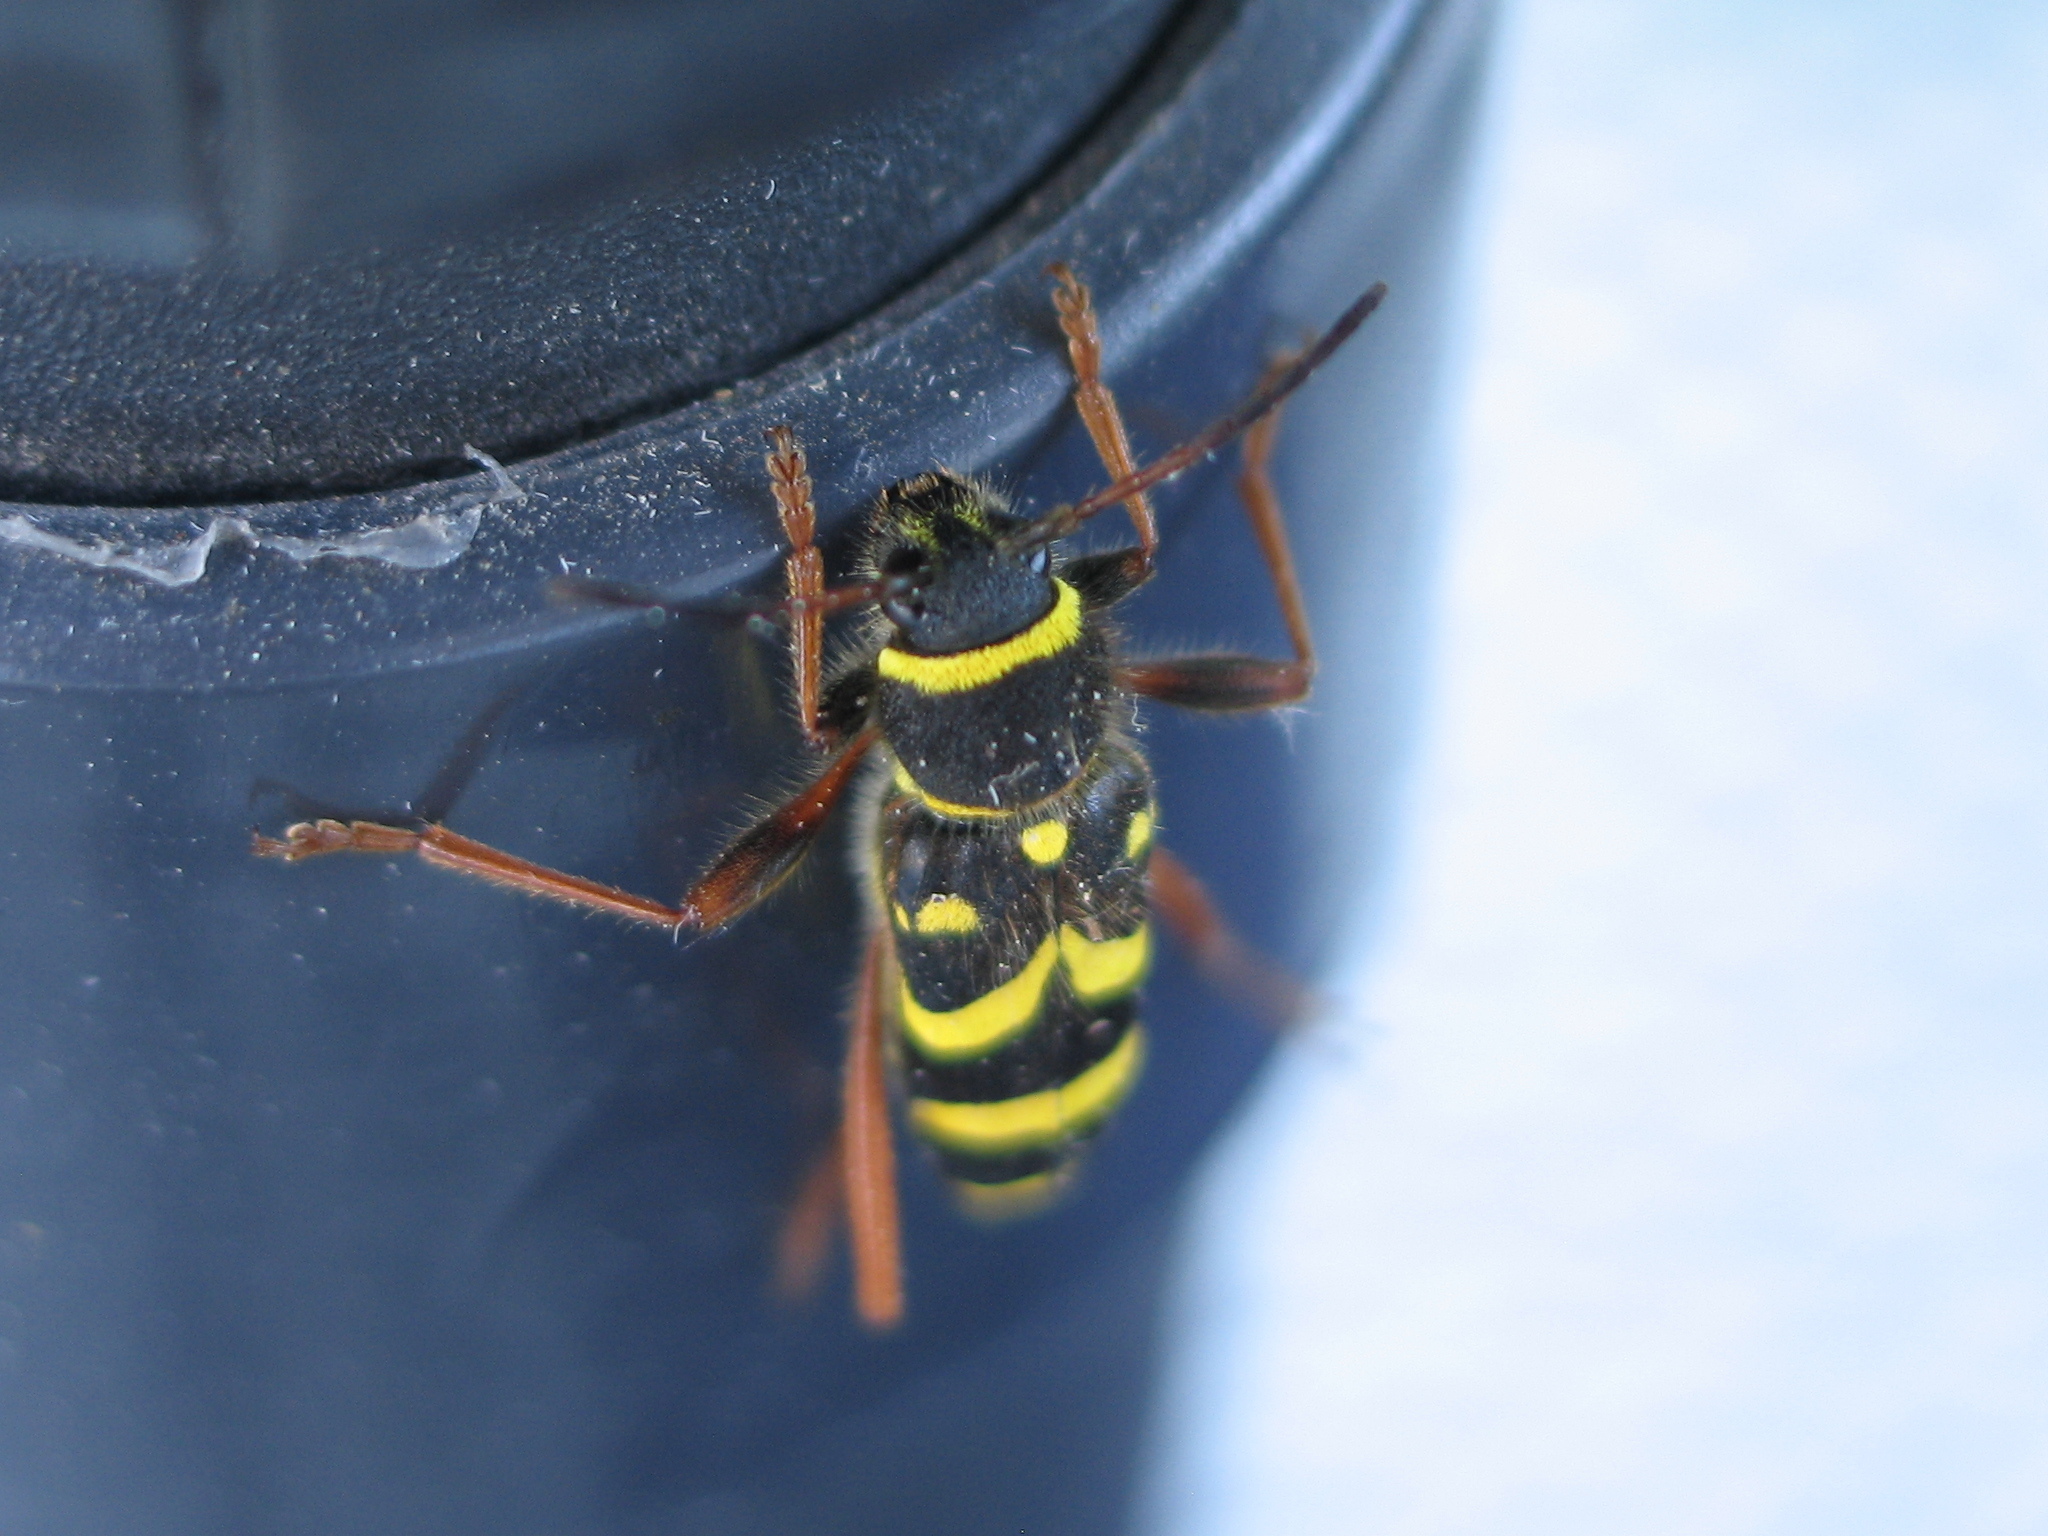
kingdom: Animalia
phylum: Arthropoda
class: Insecta
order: Coleoptera
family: Cerambycidae
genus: Clytus
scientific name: Clytus arietis
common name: Wasp beetle
